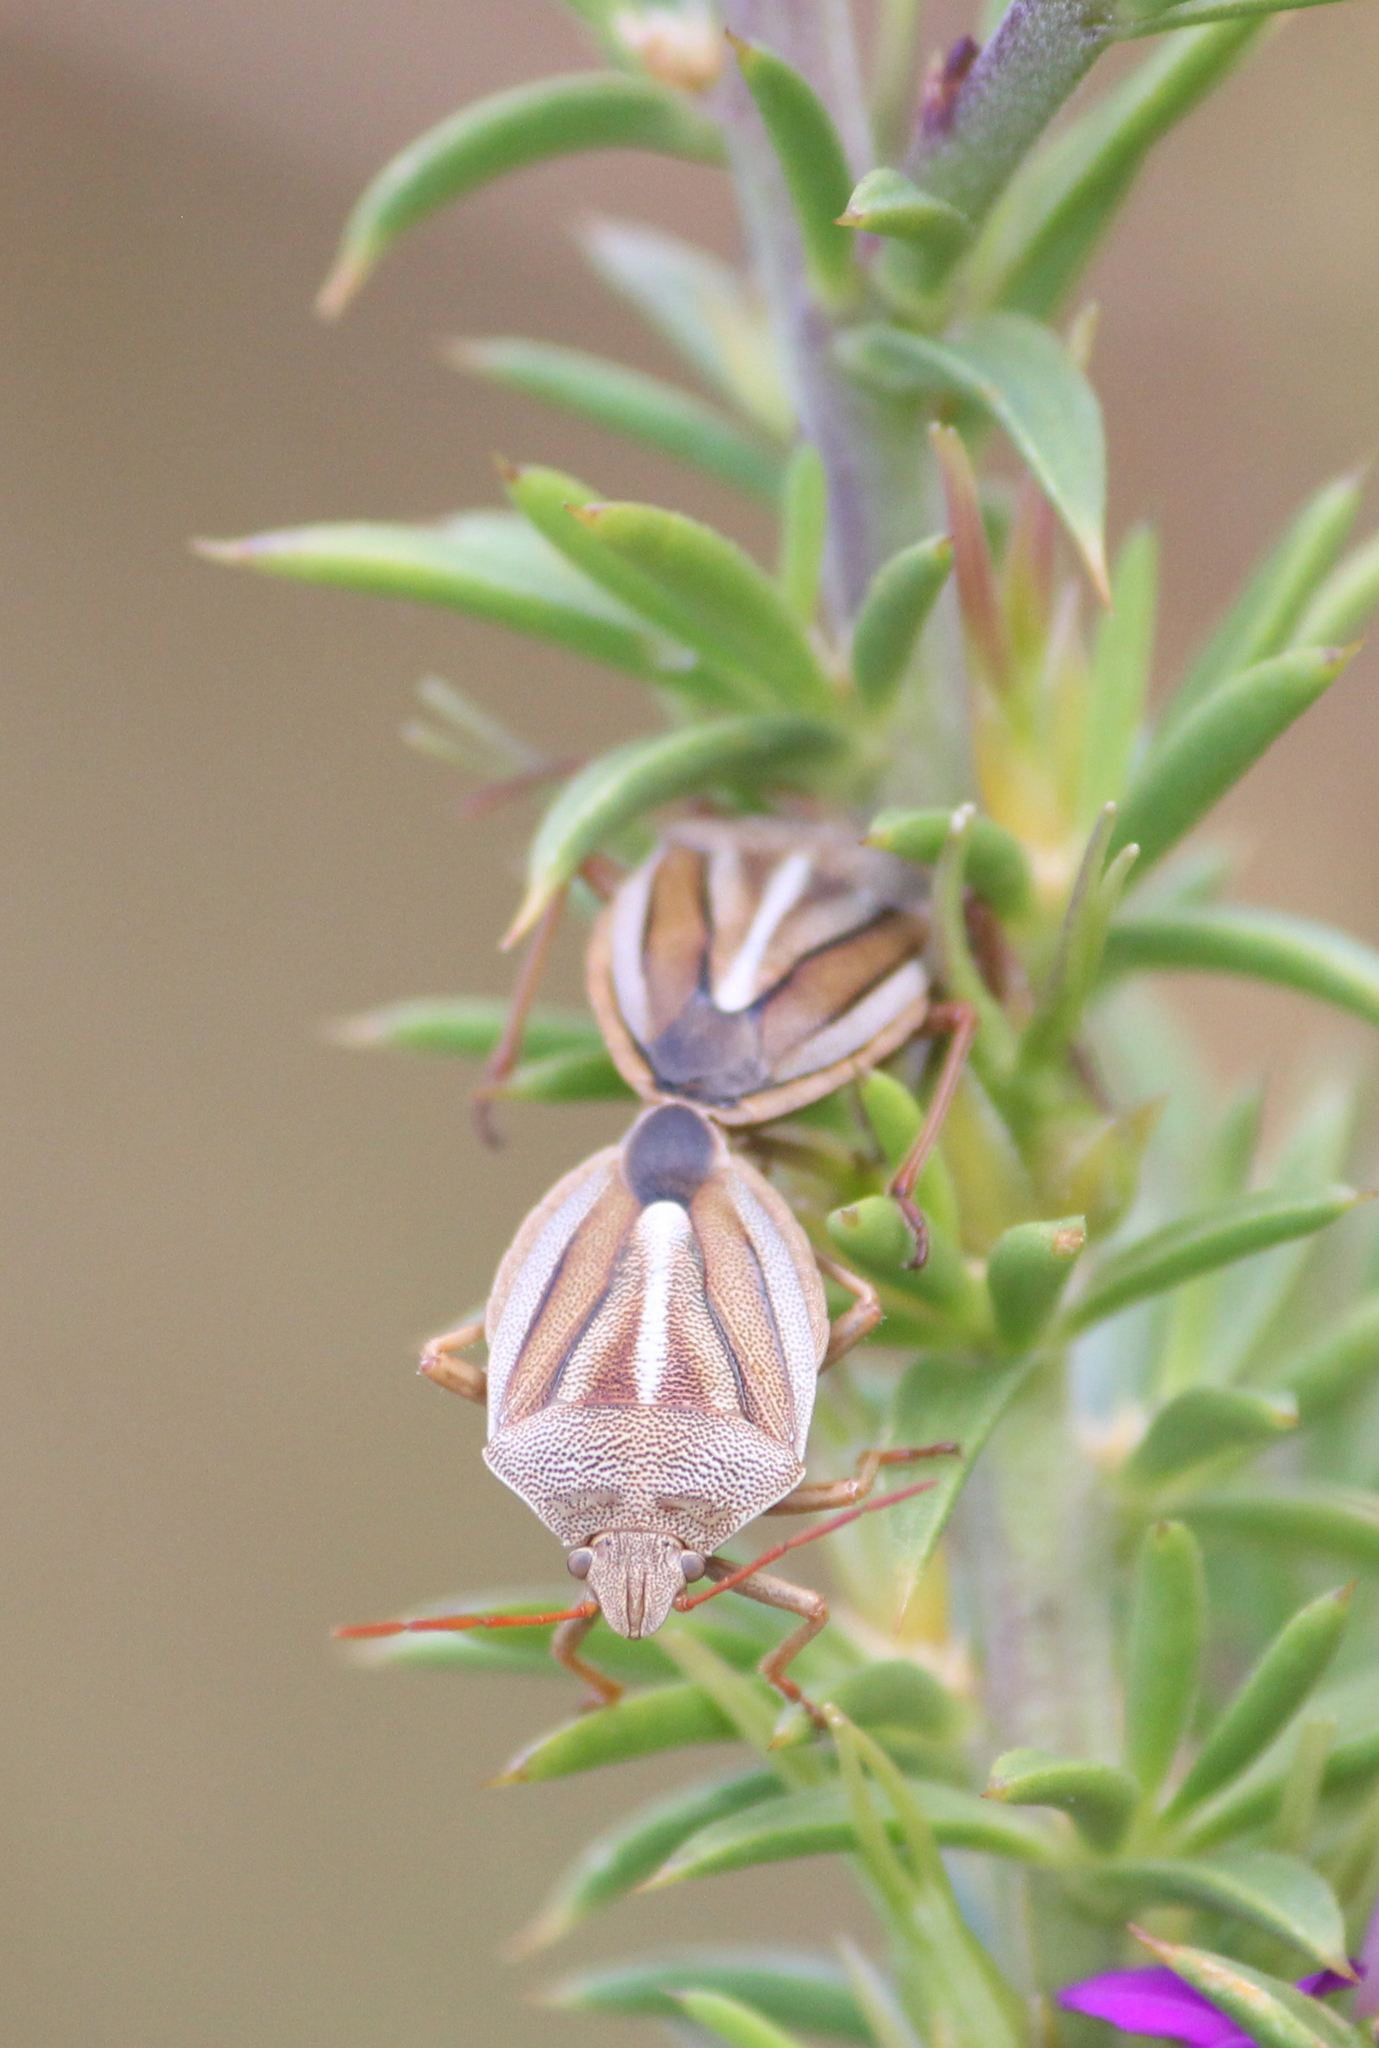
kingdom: Animalia
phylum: Arthropoda
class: Insecta
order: Hemiptera
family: Pentatomidae
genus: Theloris
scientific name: Theloris costata
